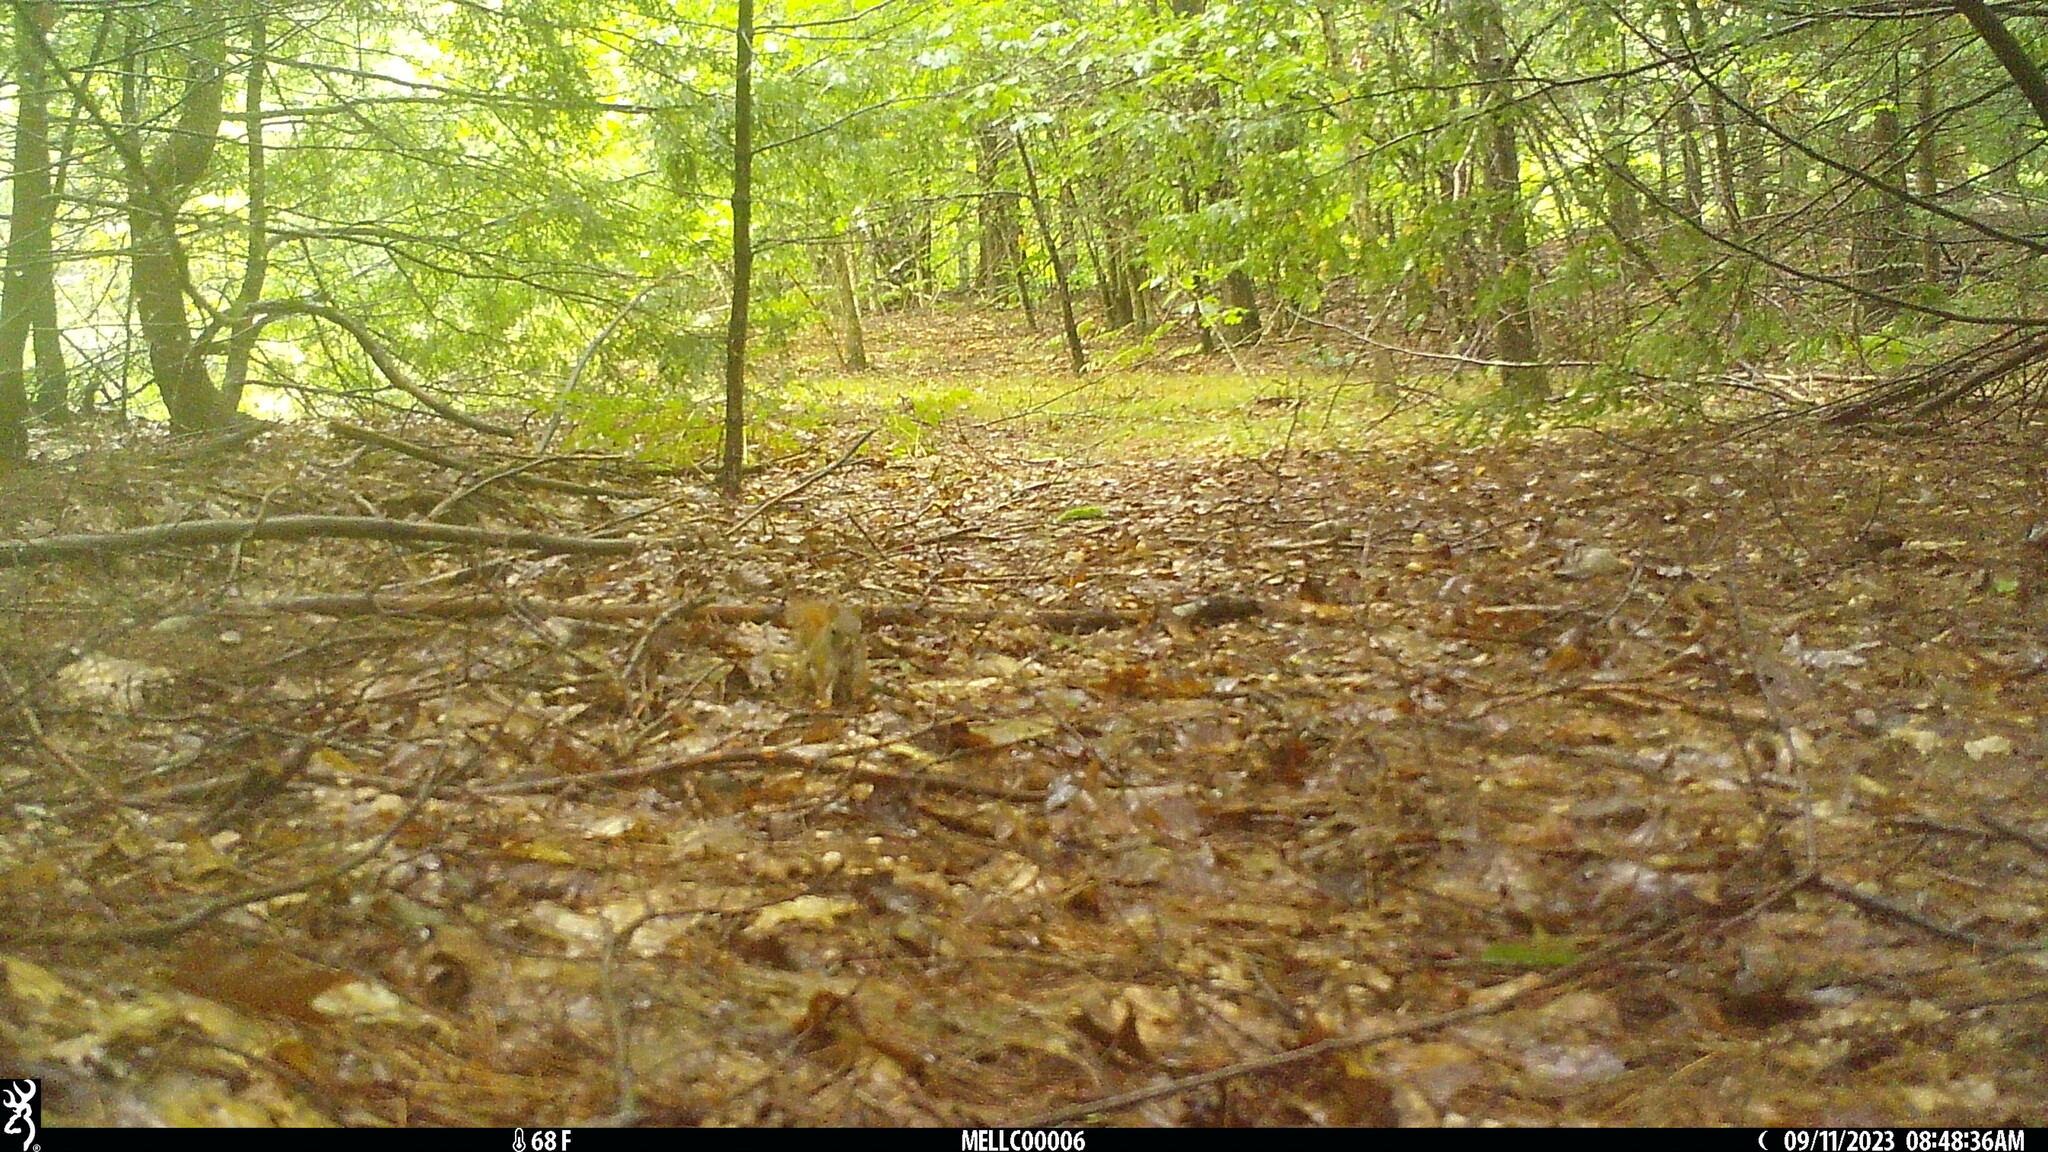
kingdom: Animalia
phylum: Chordata
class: Mammalia
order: Rodentia
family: Sciuridae
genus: Tamiasciurus
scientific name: Tamiasciurus hudsonicus
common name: Red squirrel
